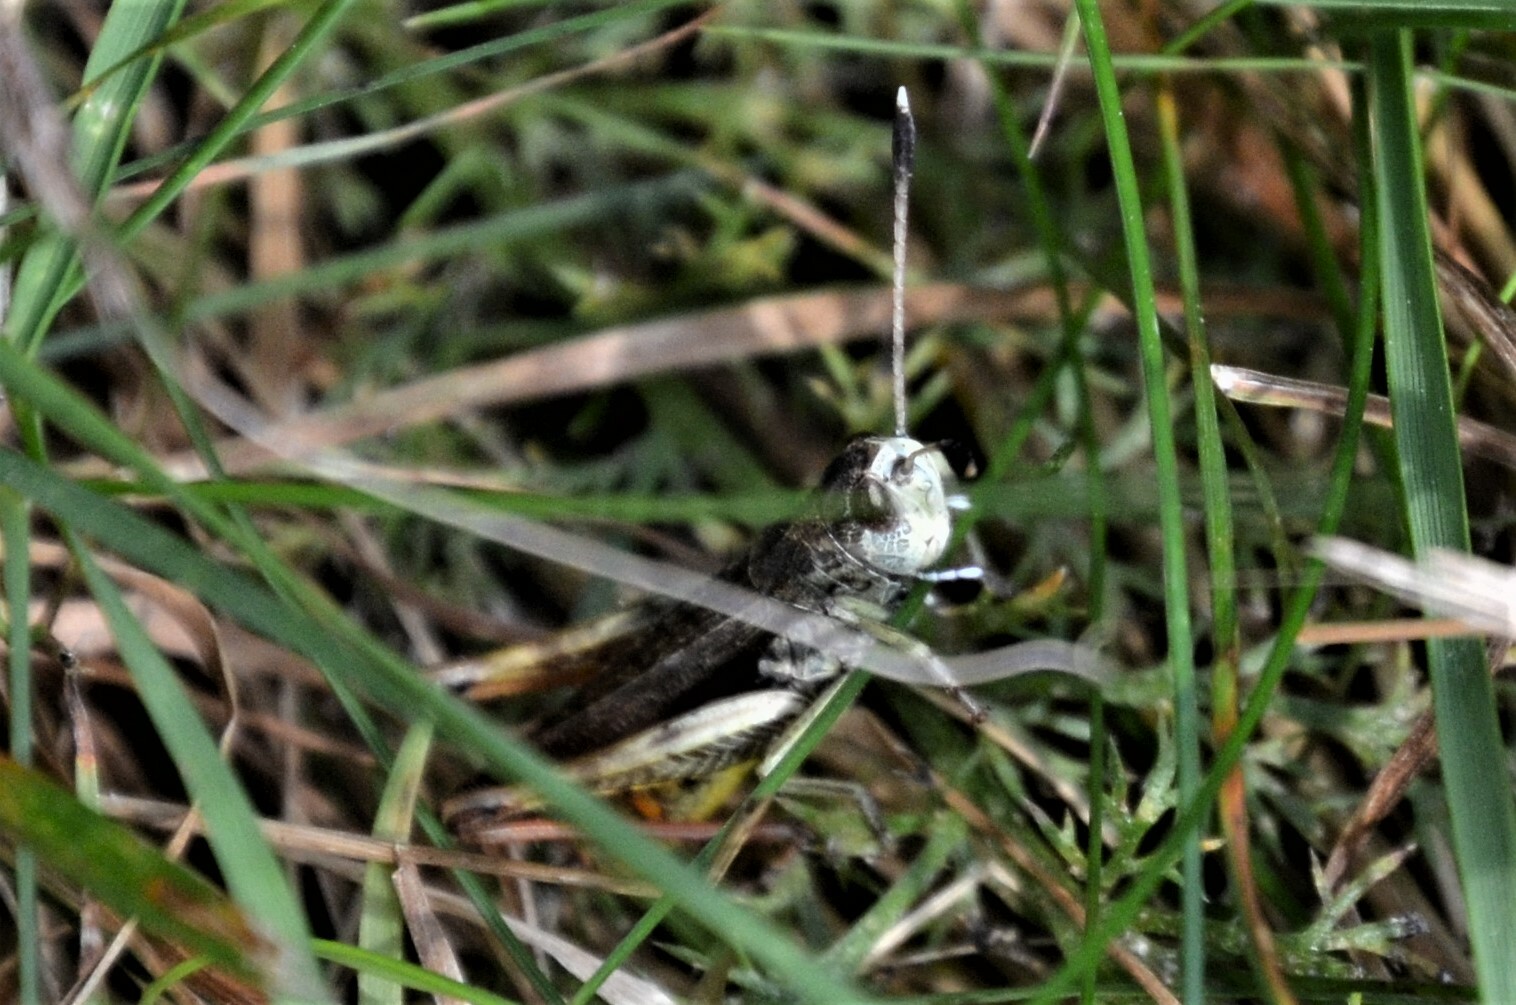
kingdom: Animalia
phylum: Arthropoda
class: Insecta
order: Orthoptera
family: Acrididae
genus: Gomphocerippus
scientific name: Gomphocerippus rufus
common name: Rufous grasshopper
